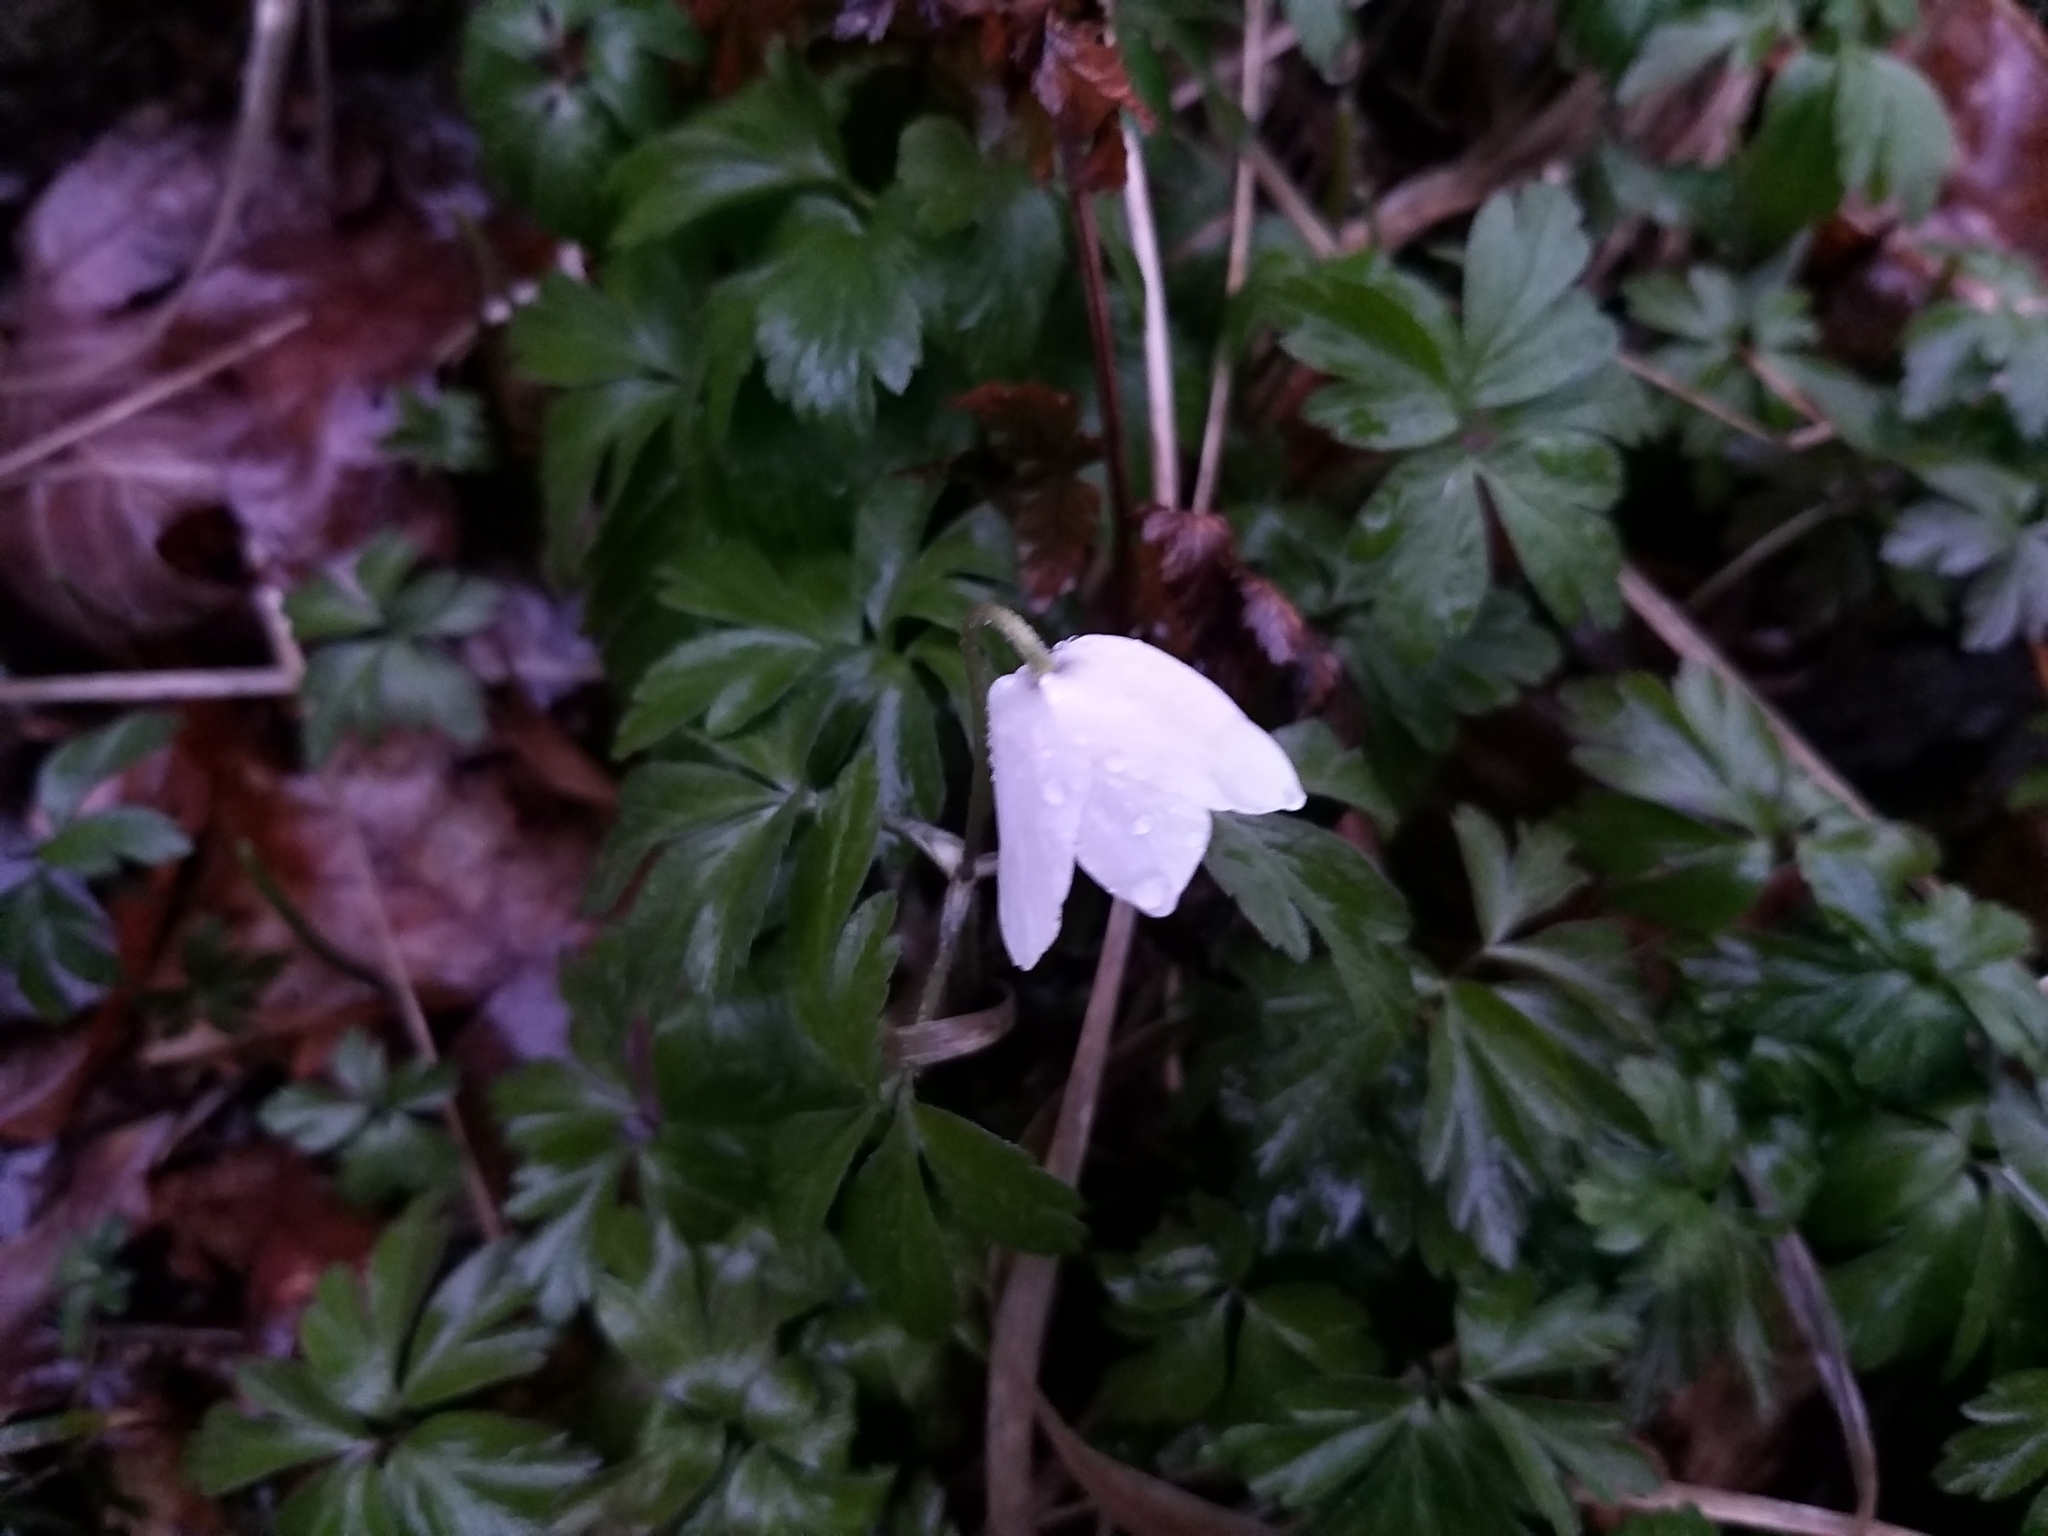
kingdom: Plantae
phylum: Tracheophyta
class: Magnoliopsida
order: Ranunculales
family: Ranunculaceae
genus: Anemone
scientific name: Anemone nemorosa
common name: Wood anemone
